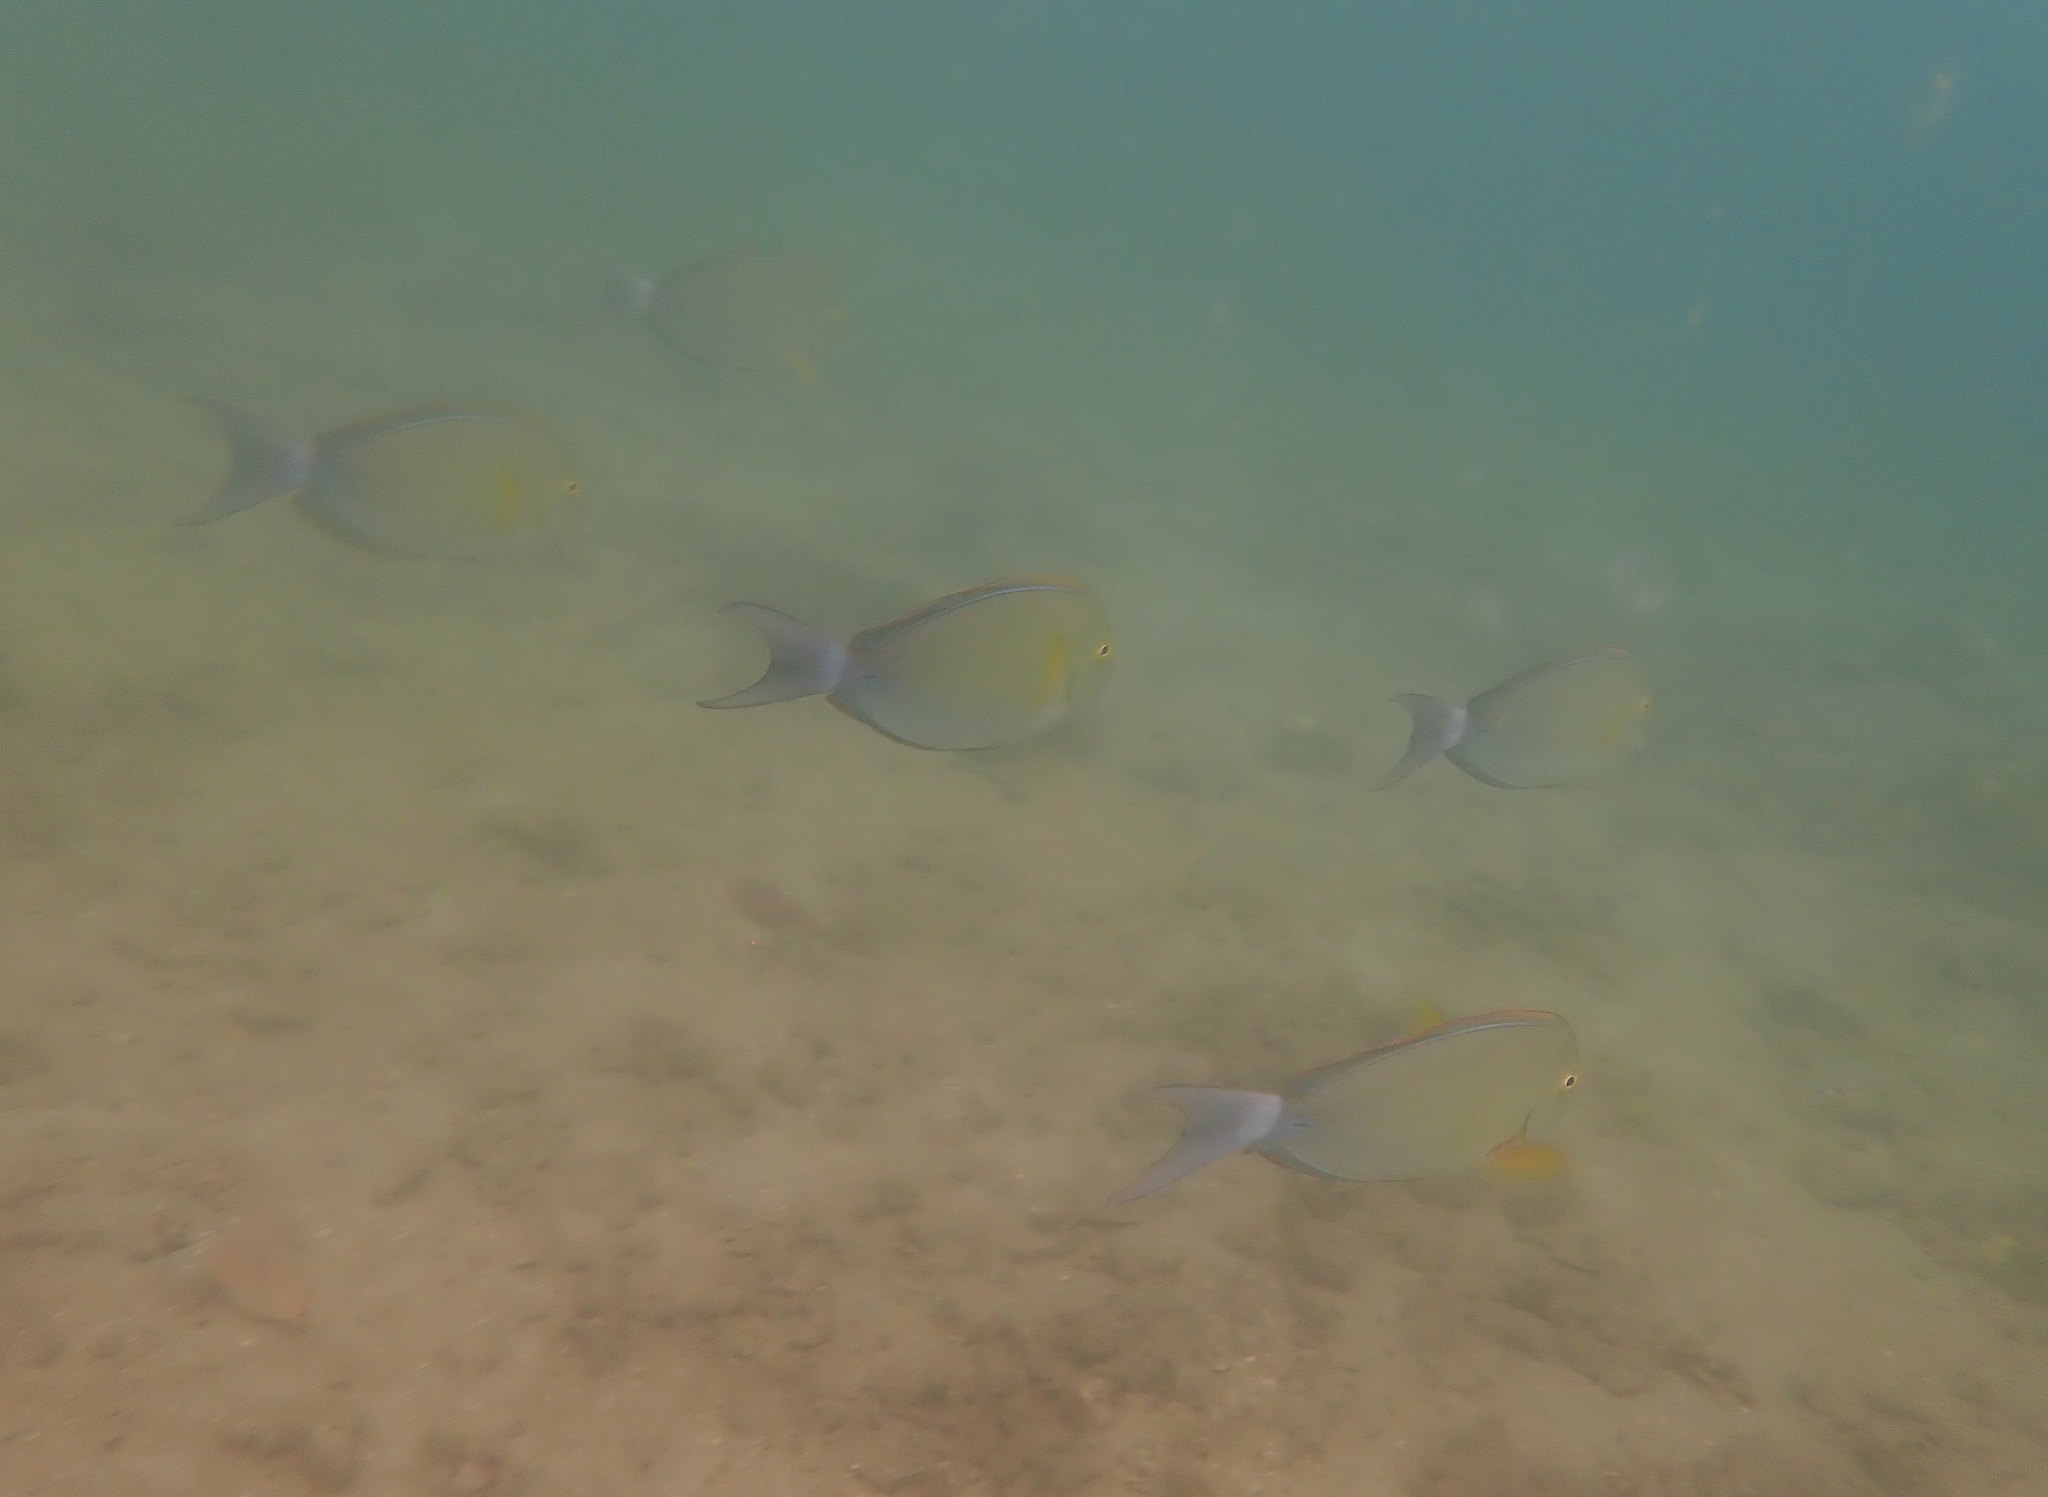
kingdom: Animalia
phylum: Chordata
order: Perciformes
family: Acanthuridae
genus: Acanthurus
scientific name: Acanthurus xanthopterus
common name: Cuvier's surgeonfish
